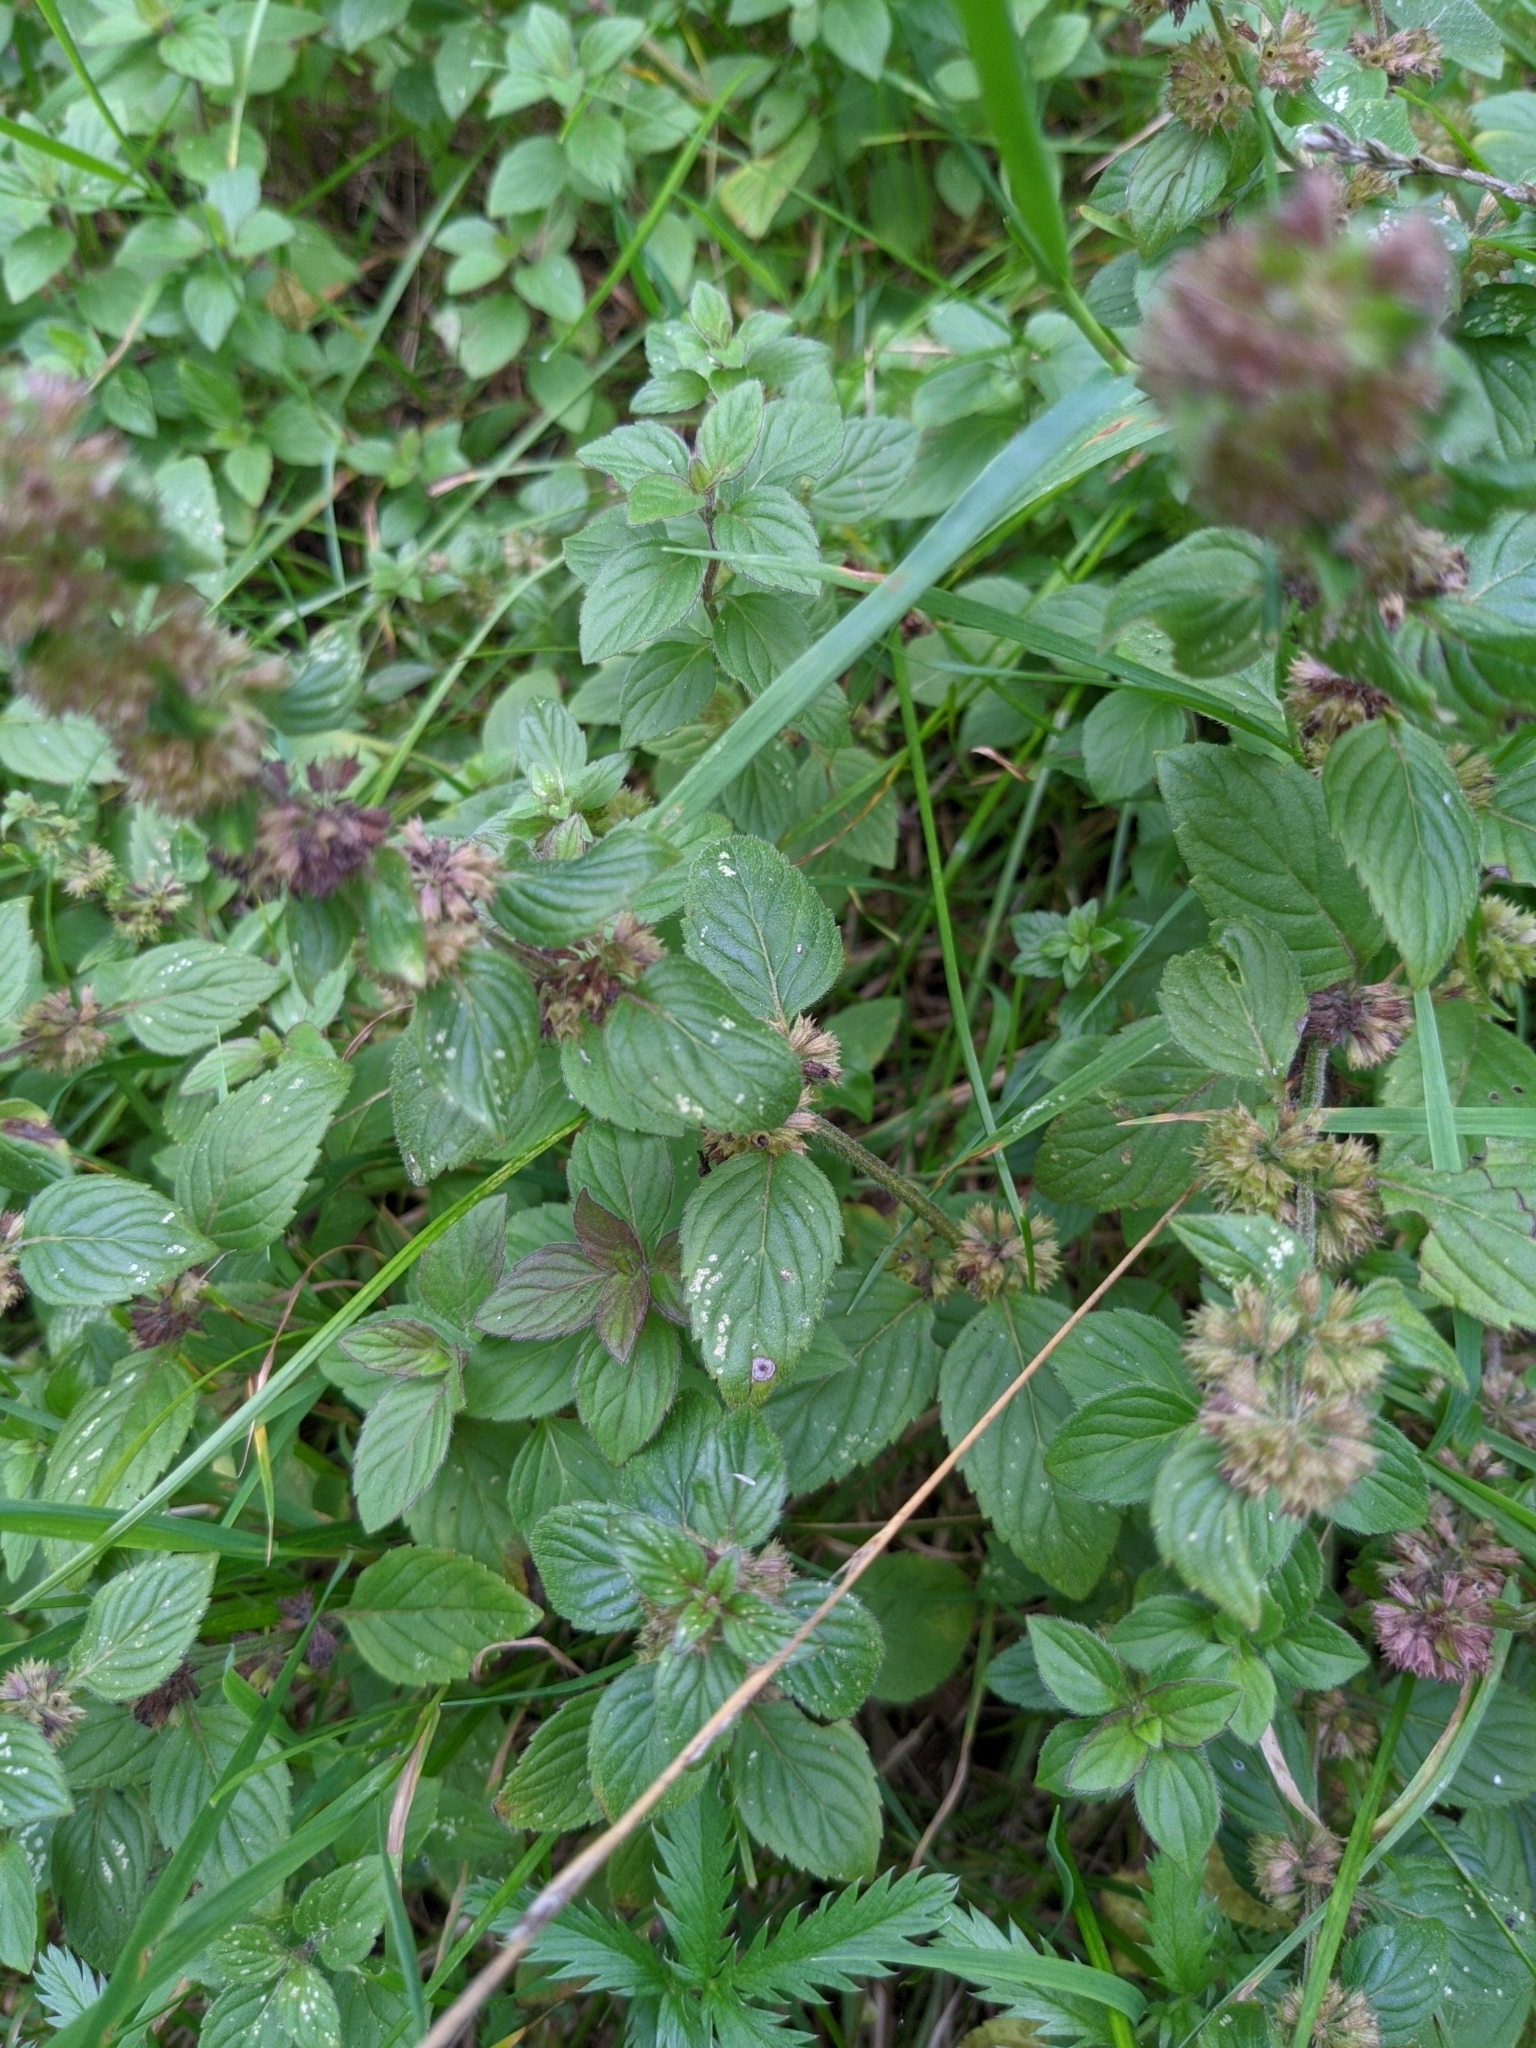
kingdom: Plantae
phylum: Tracheophyta
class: Magnoliopsida
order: Lamiales
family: Lamiaceae
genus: Origanum
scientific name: Origanum vulgare
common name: Wild marjoram
